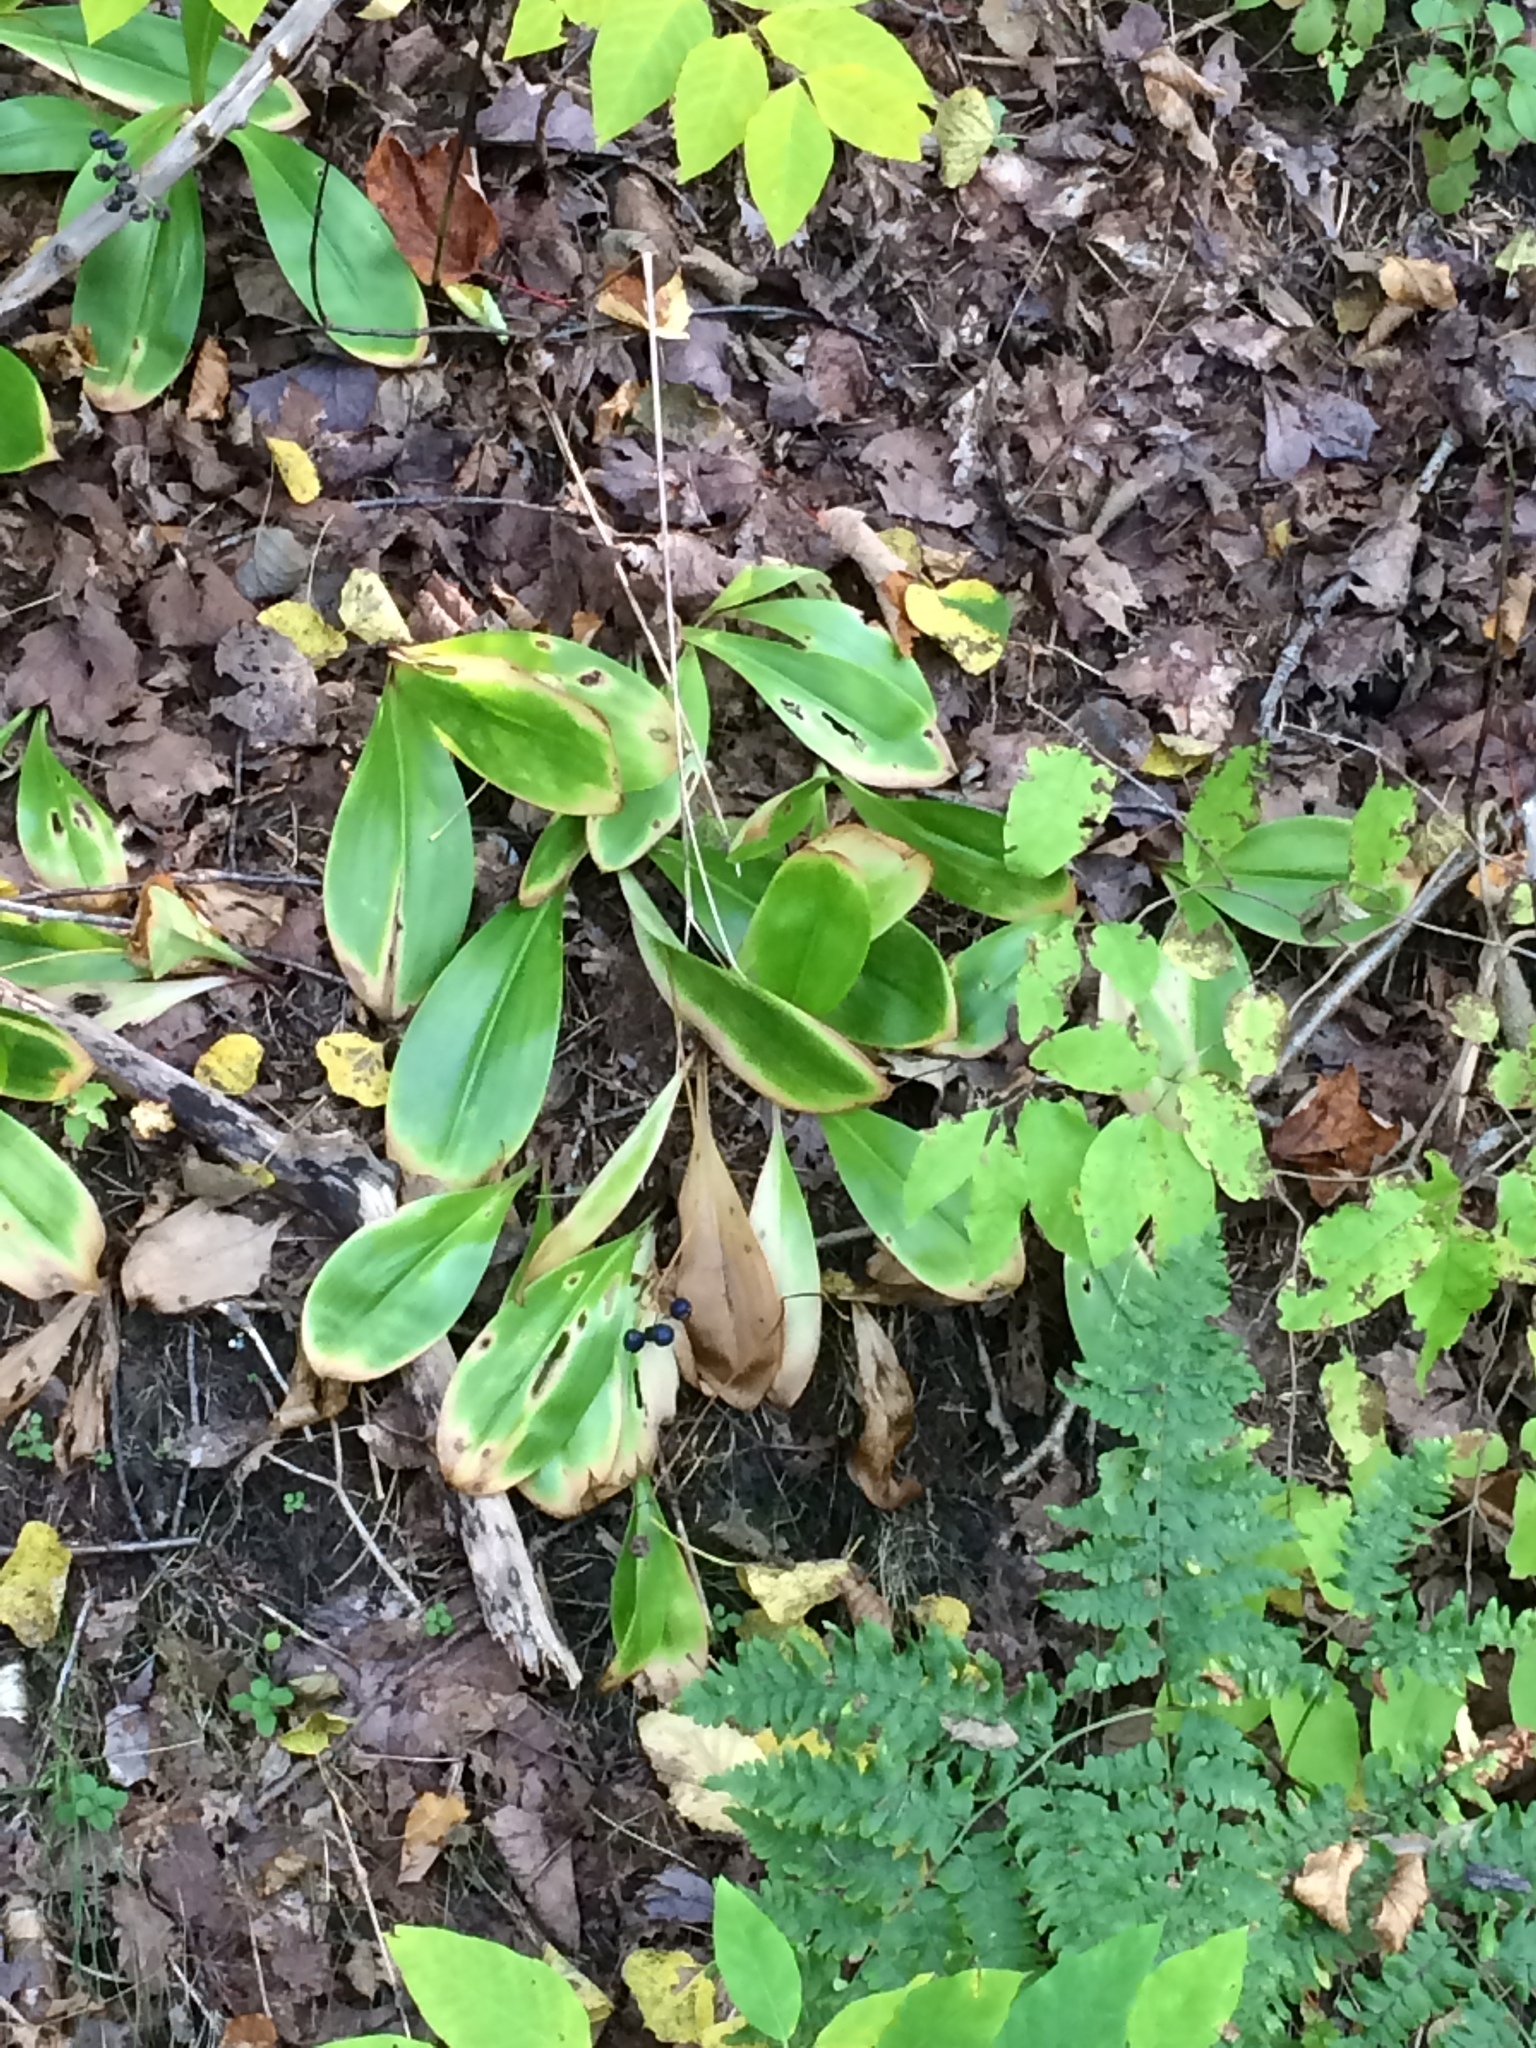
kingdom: Plantae
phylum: Tracheophyta
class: Liliopsida
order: Liliales
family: Liliaceae
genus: Clintonia
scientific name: Clintonia borealis
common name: Yellow clintonia
